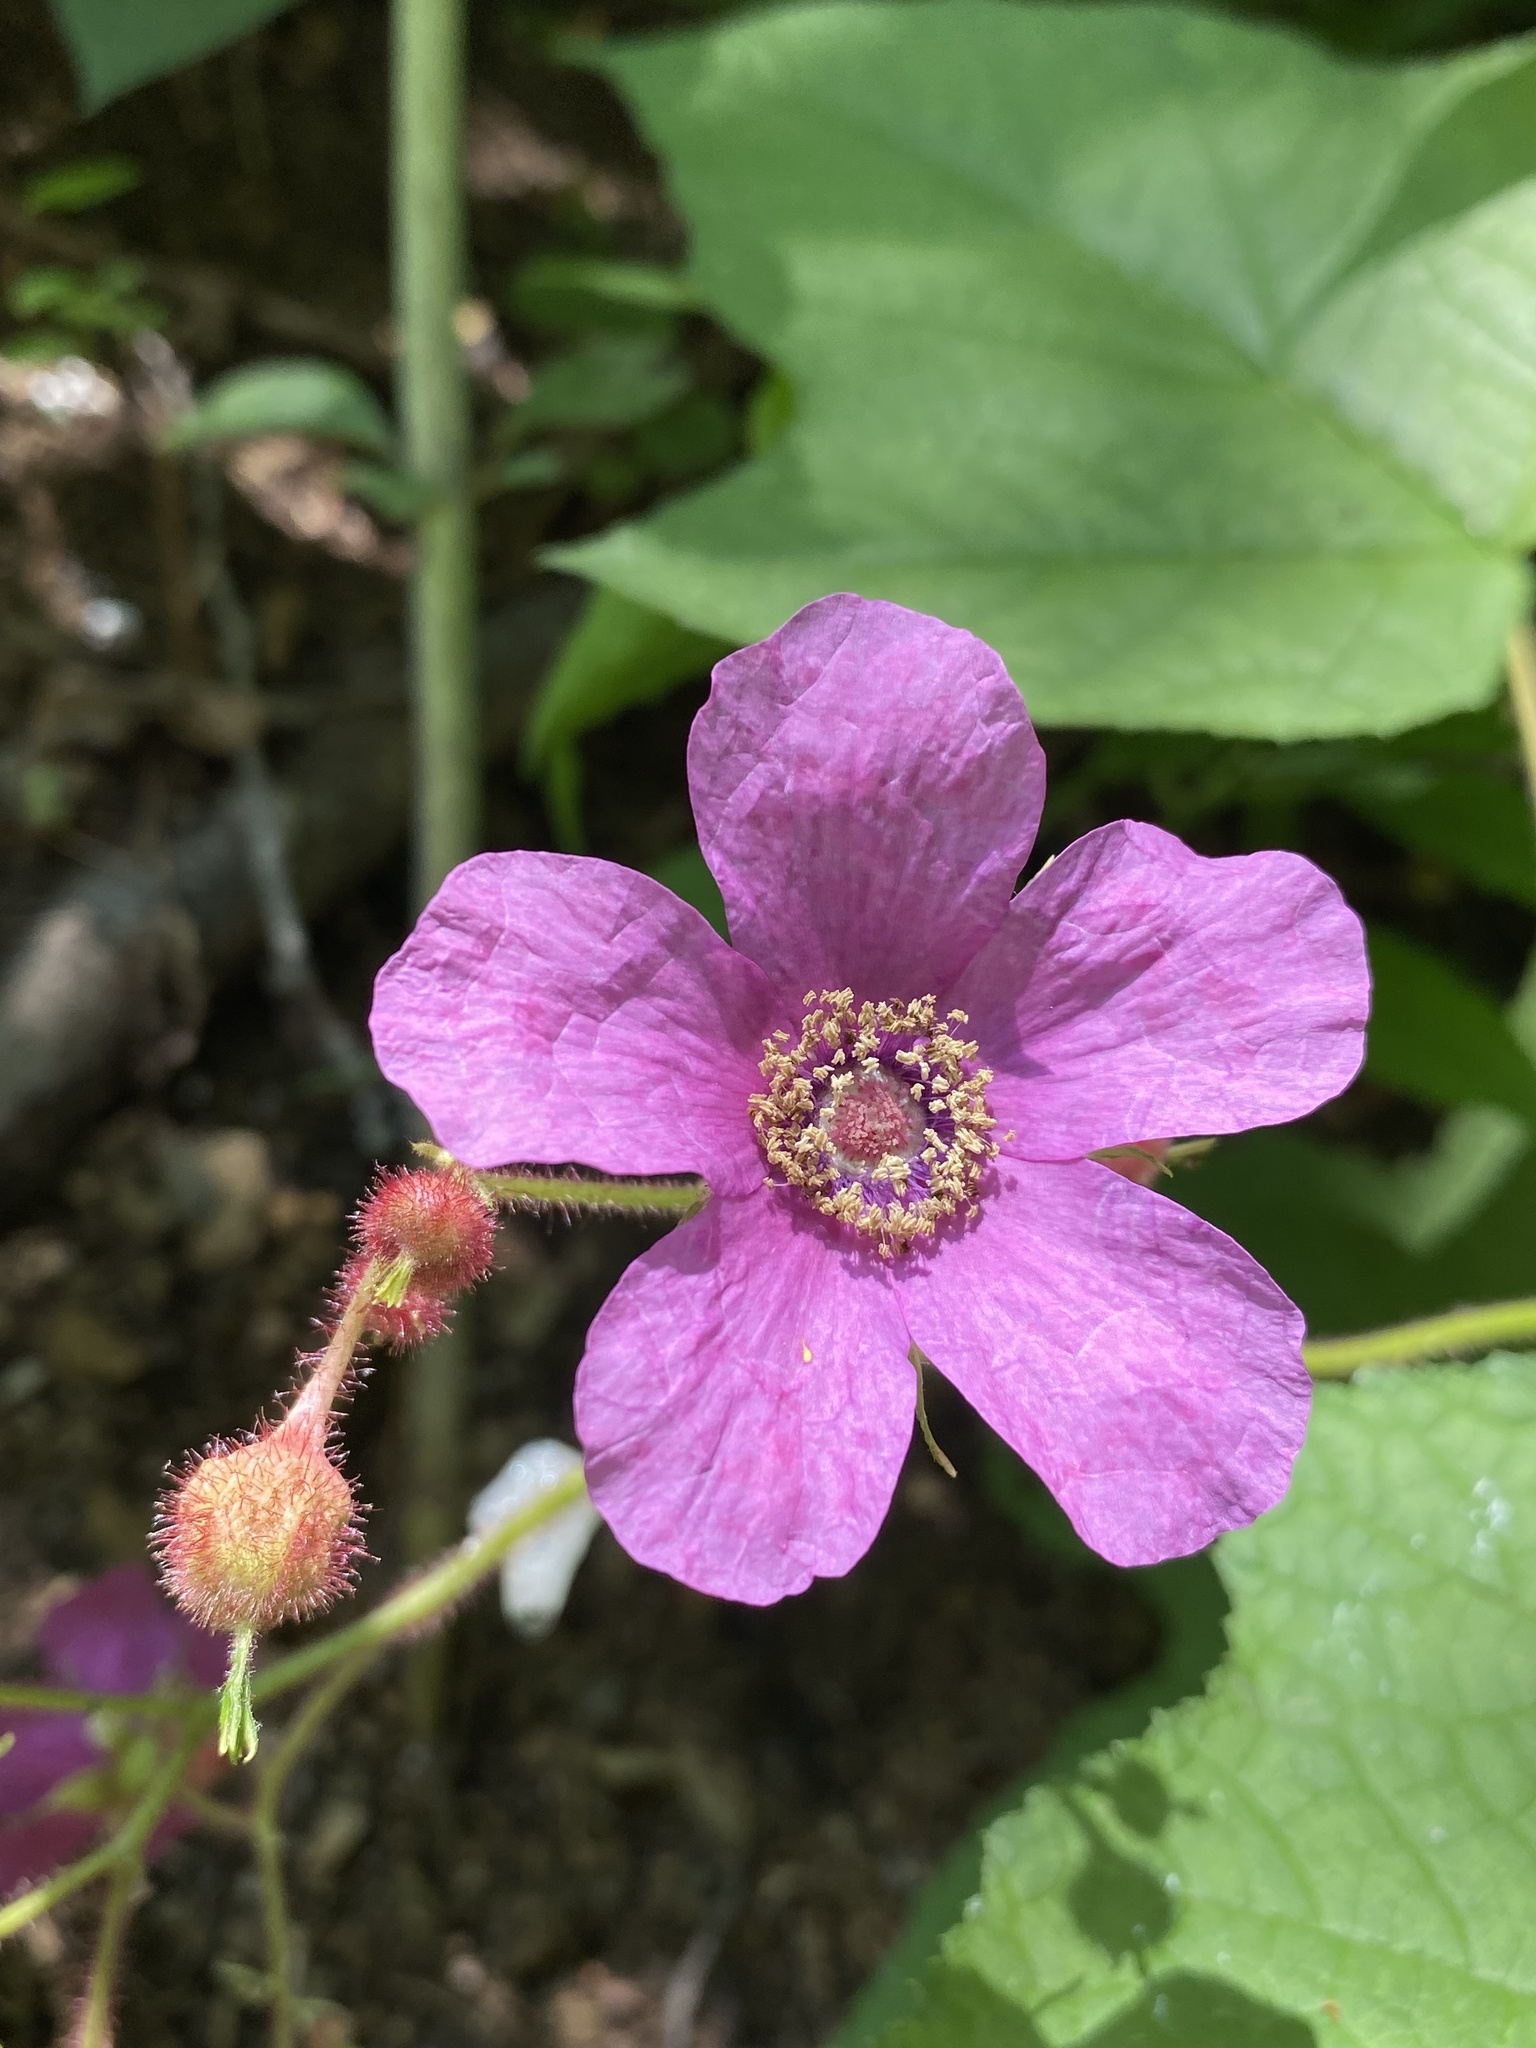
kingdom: Plantae
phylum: Tracheophyta
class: Magnoliopsida
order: Rosales
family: Rosaceae
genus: Rubus
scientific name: Rubus odoratus
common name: Purple-flowered raspberry
